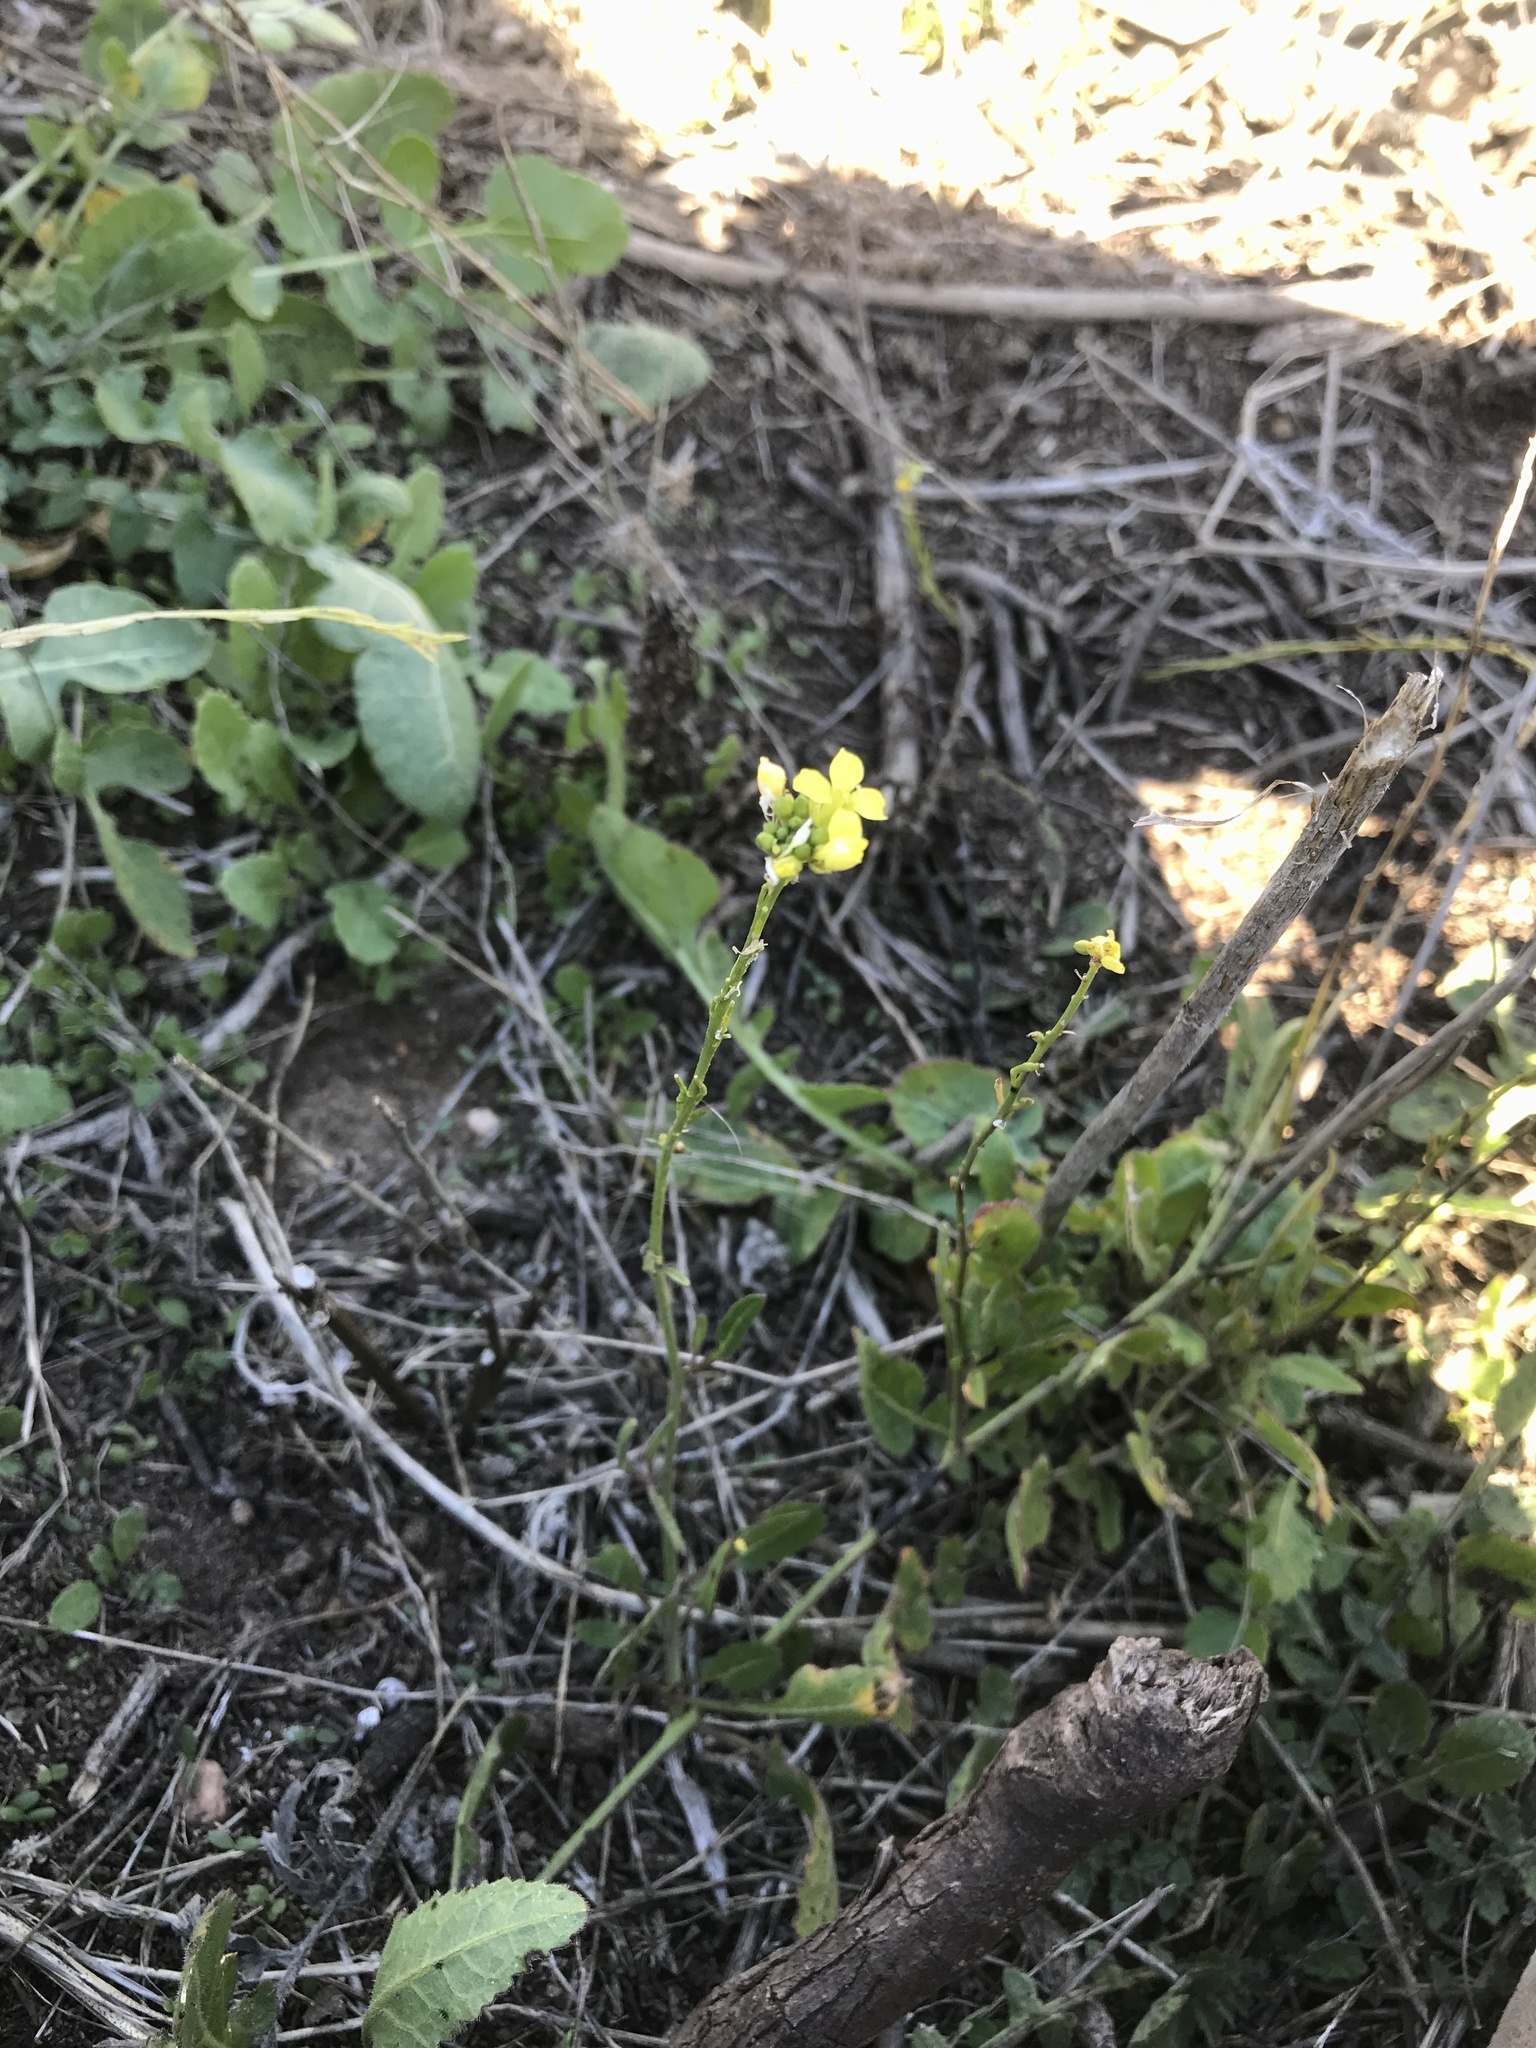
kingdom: Plantae
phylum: Tracheophyta
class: Magnoliopsida
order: Brassicales
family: Brassicaceae
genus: Hirschfeldia
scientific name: Hirschfeldia incana
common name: Hoary mustard
